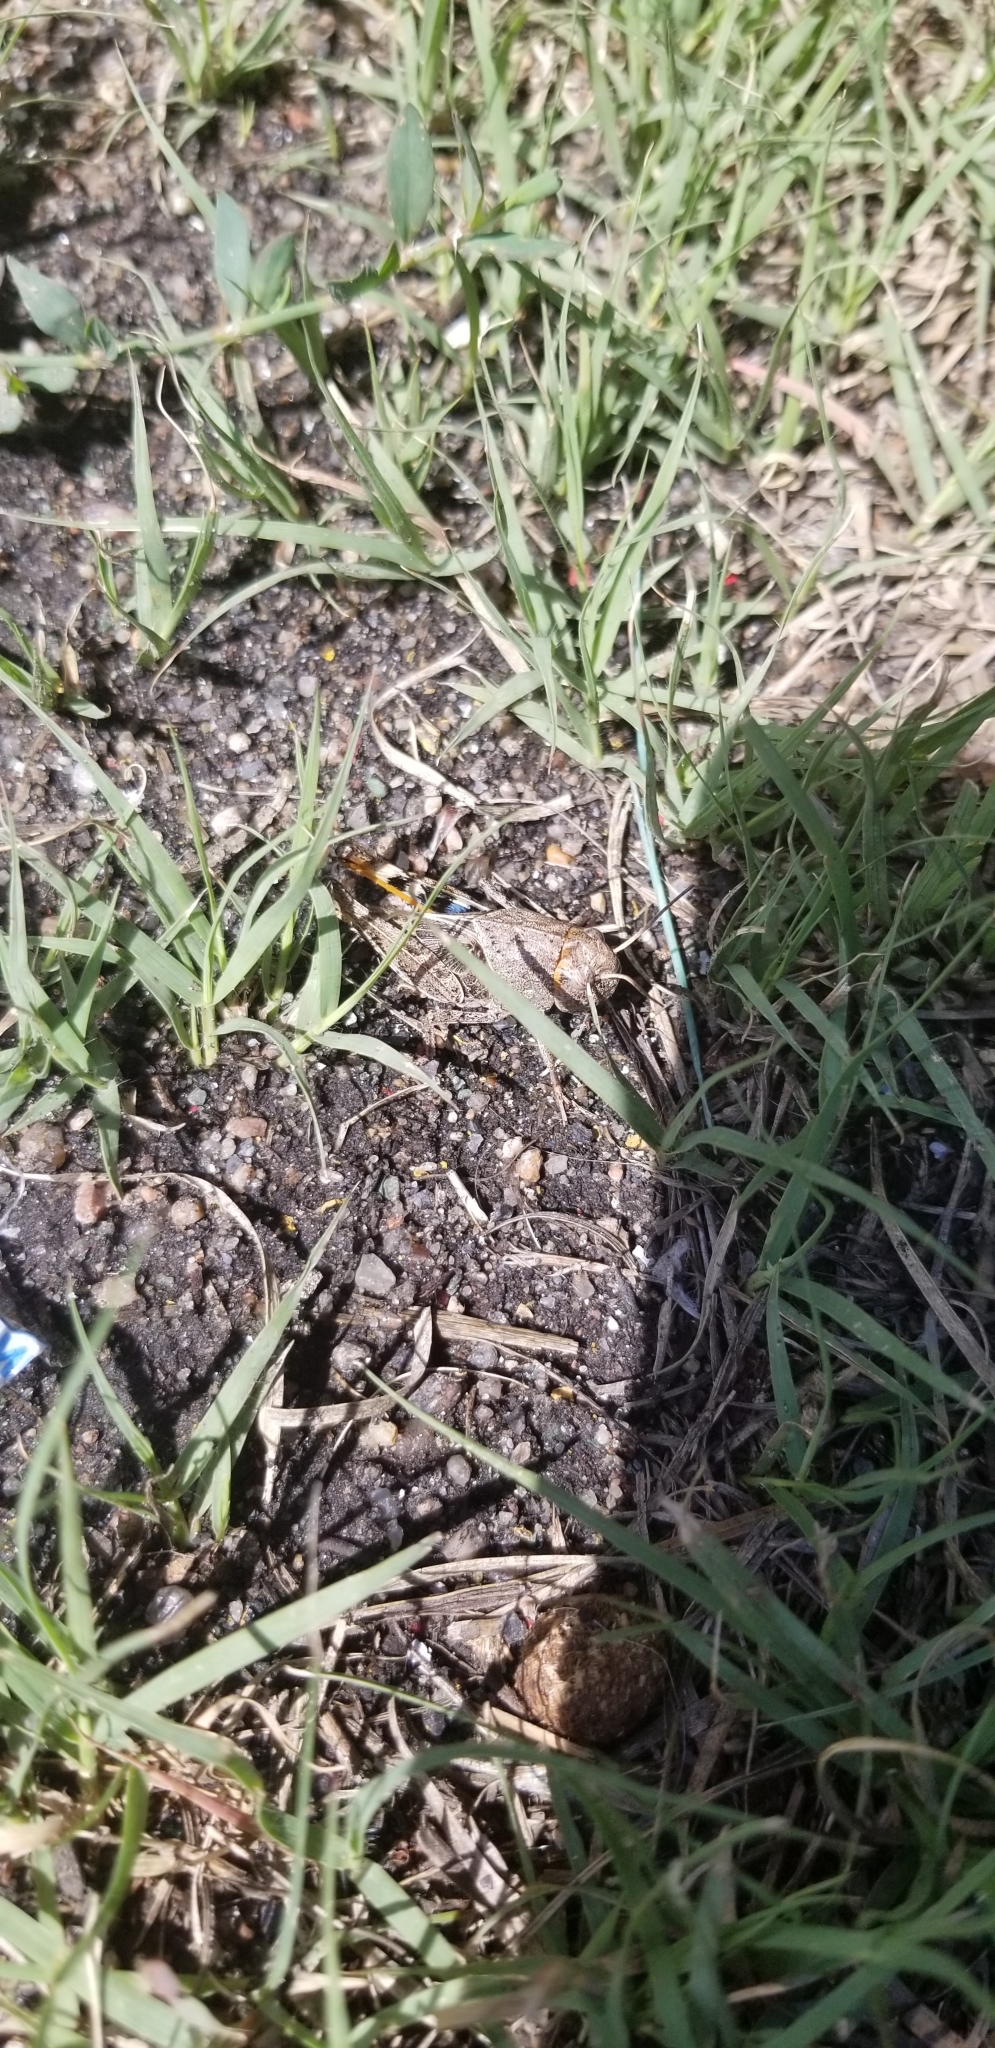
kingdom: Animalia
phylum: Arthropoda
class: Insecta
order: Orthoptera
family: Acrididae
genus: Hippiscus
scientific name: Hippiscus ocelote
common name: Wrinkled grasshopper
